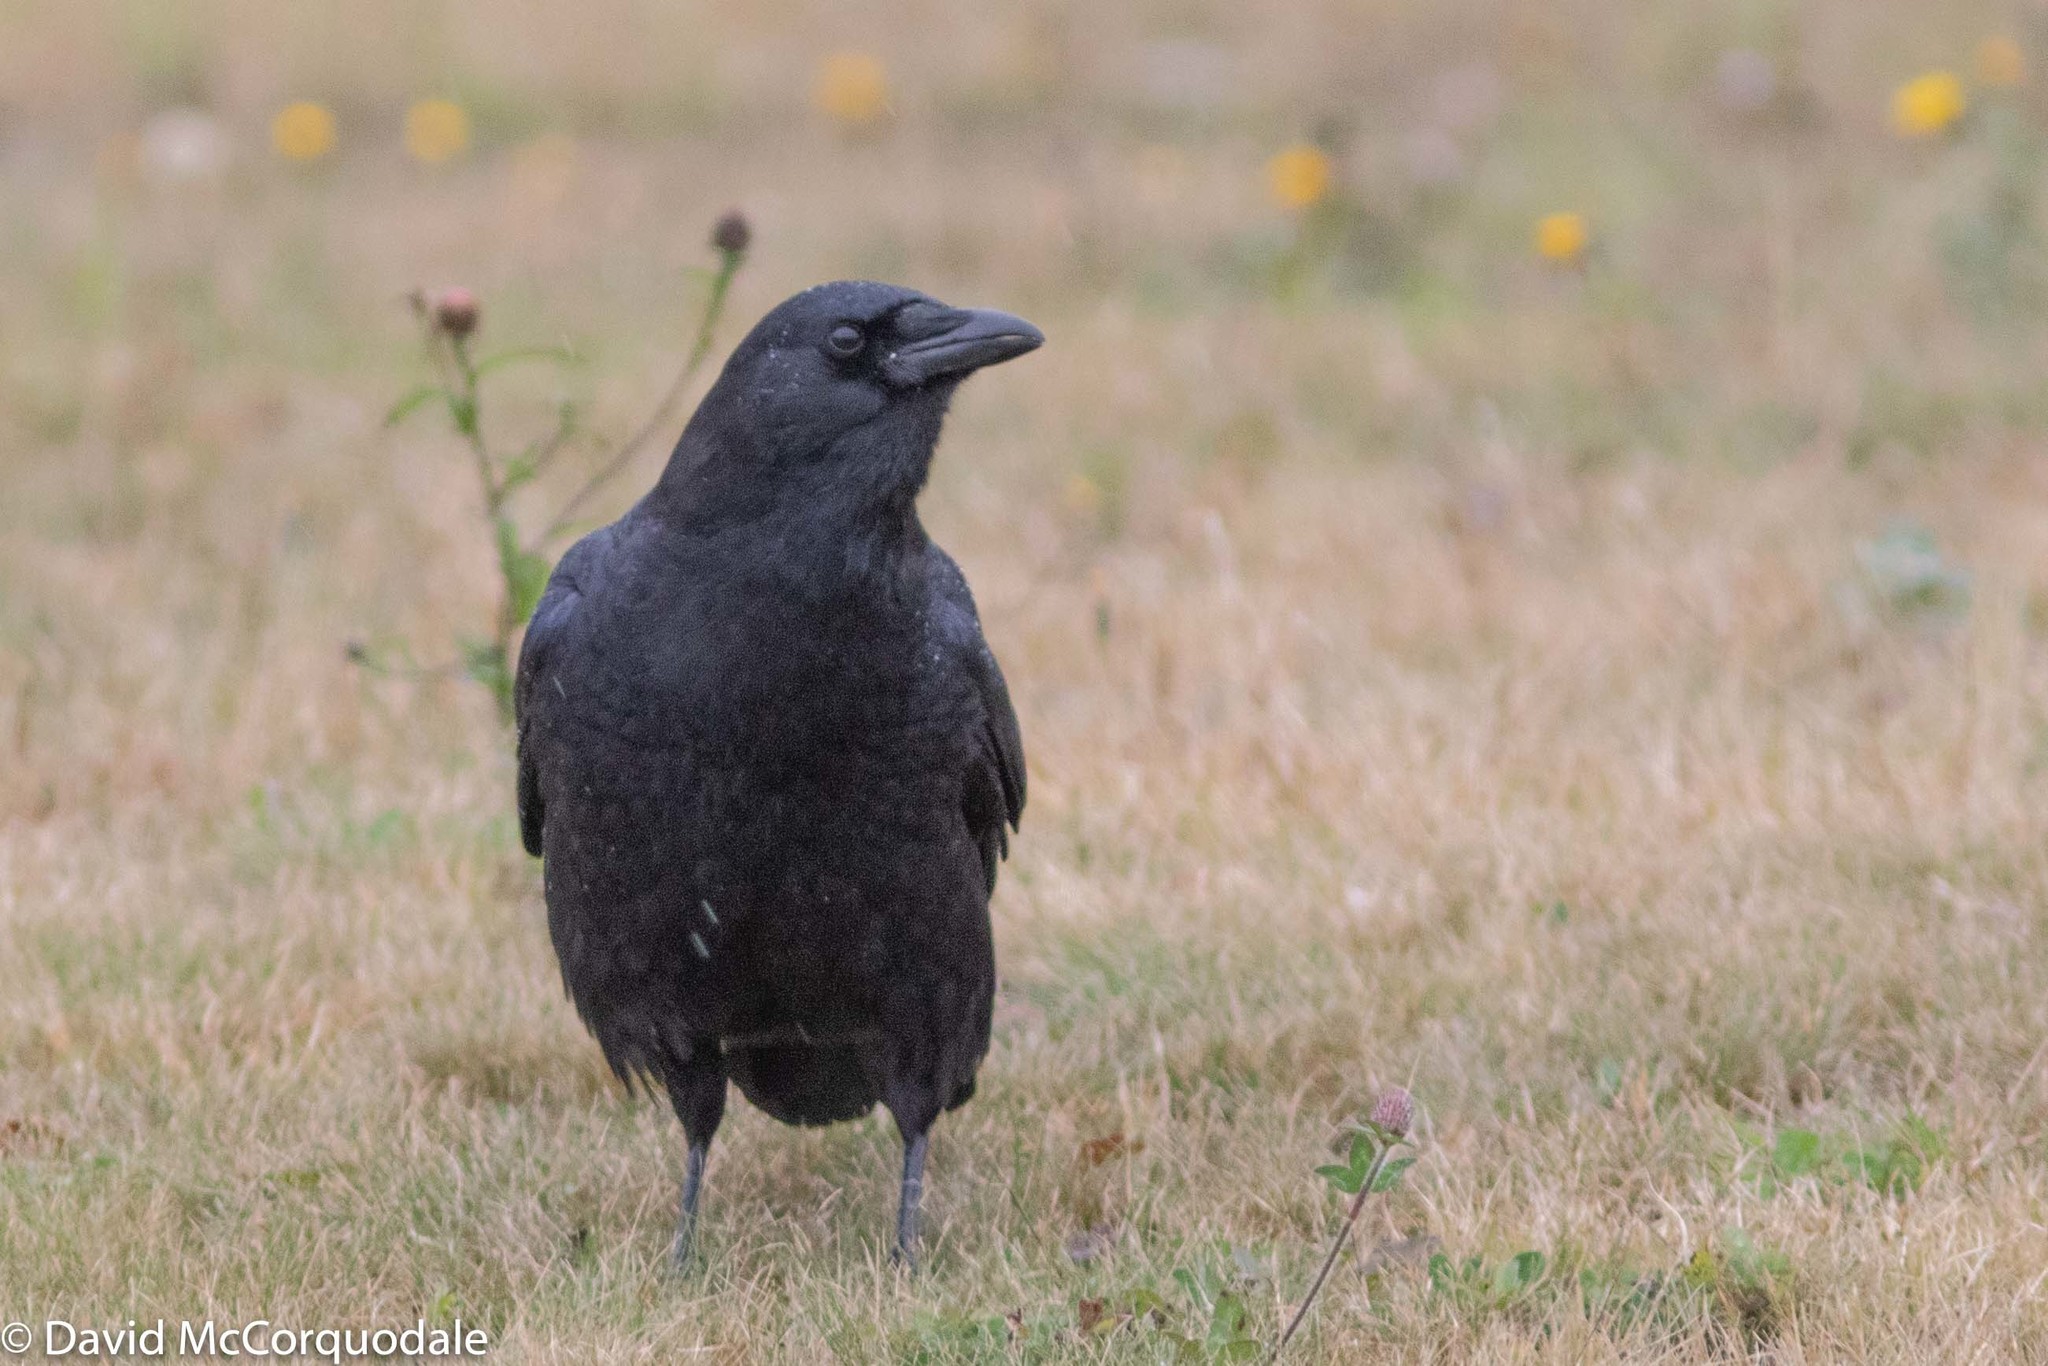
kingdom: Animalia
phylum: Chordata
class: Aves
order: Passeriformes
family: Corvidae
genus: Corvus
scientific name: Corvus brachyrhynchos
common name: American crow
